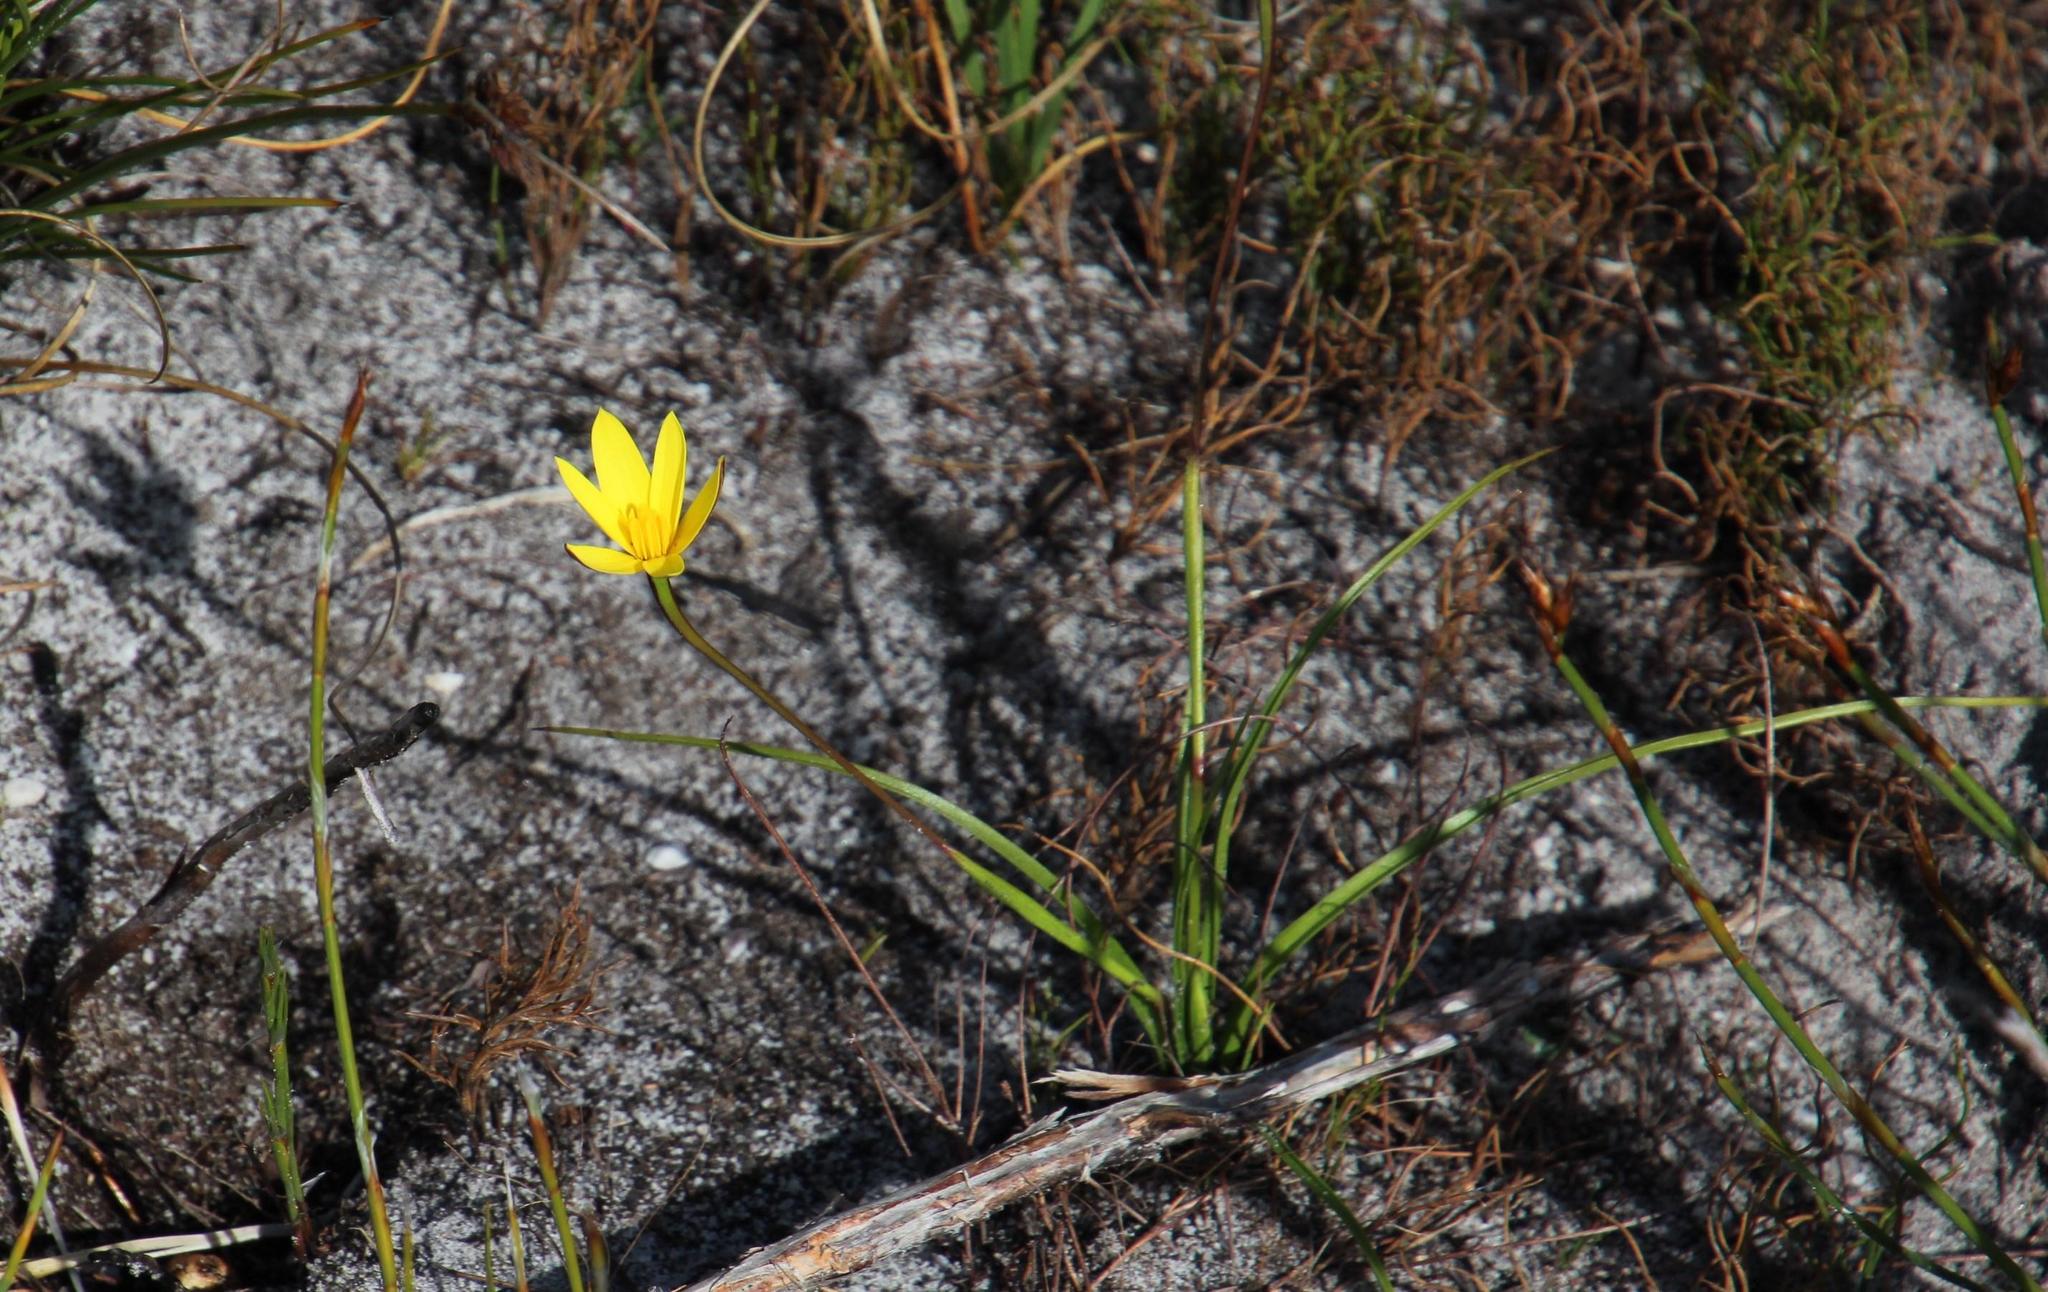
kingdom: Plantae
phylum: Tracheophyta
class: Liliopsida
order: Asparagales
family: Hypoxidaceae
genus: Pauridia
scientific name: Pauridia capensis
